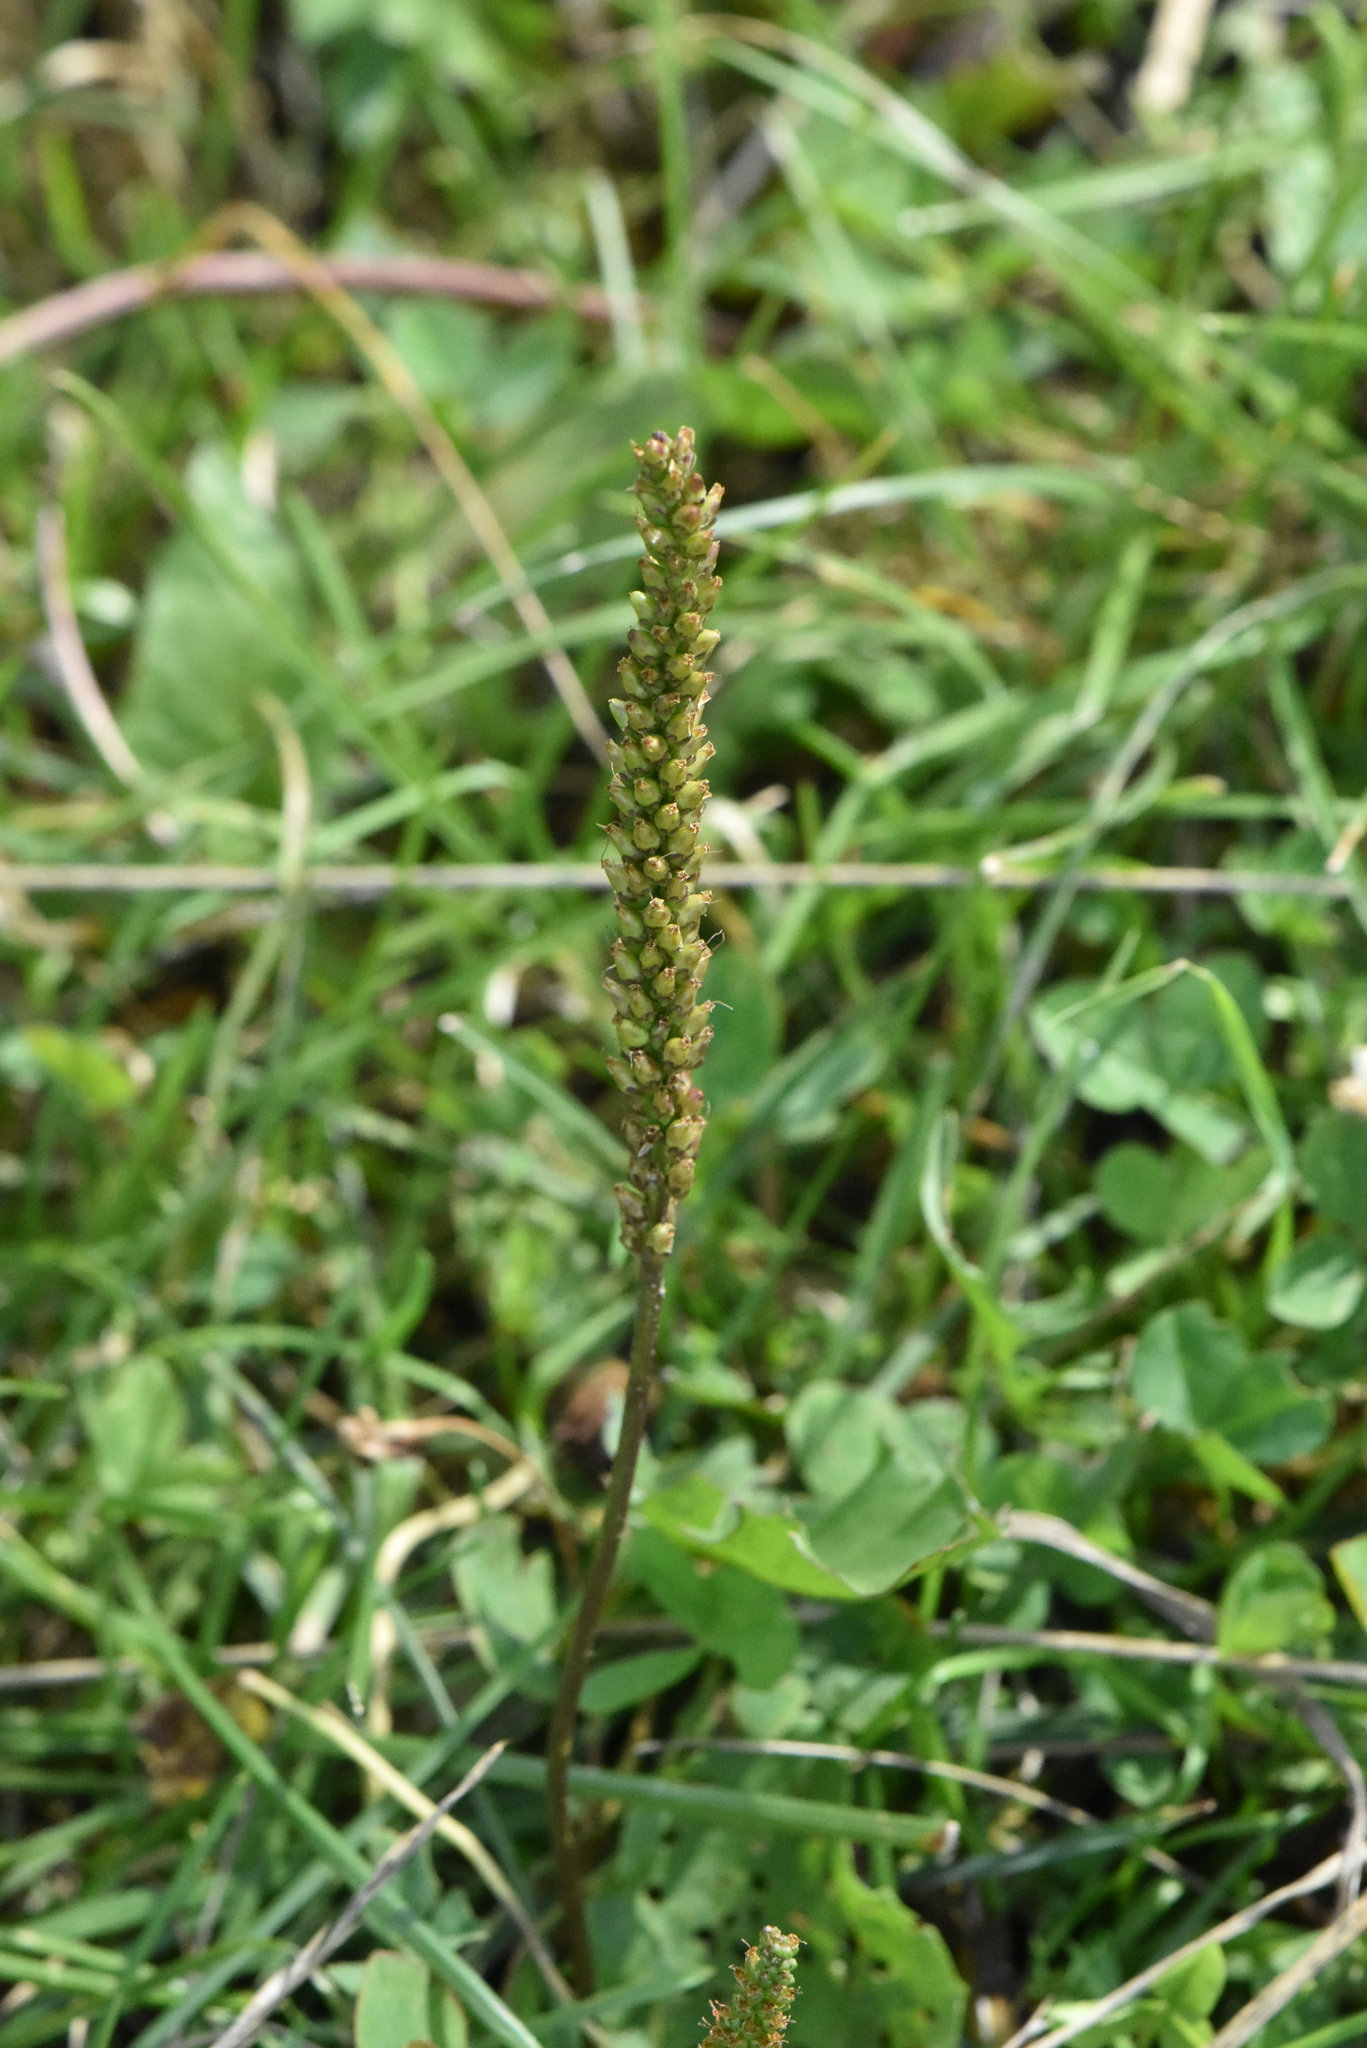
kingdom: Plantae
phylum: Tracheophyta
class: Magnoliopsida
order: Lamiales
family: Plantaginaceae
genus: Plantago
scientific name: Plantago major
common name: Common plantain
